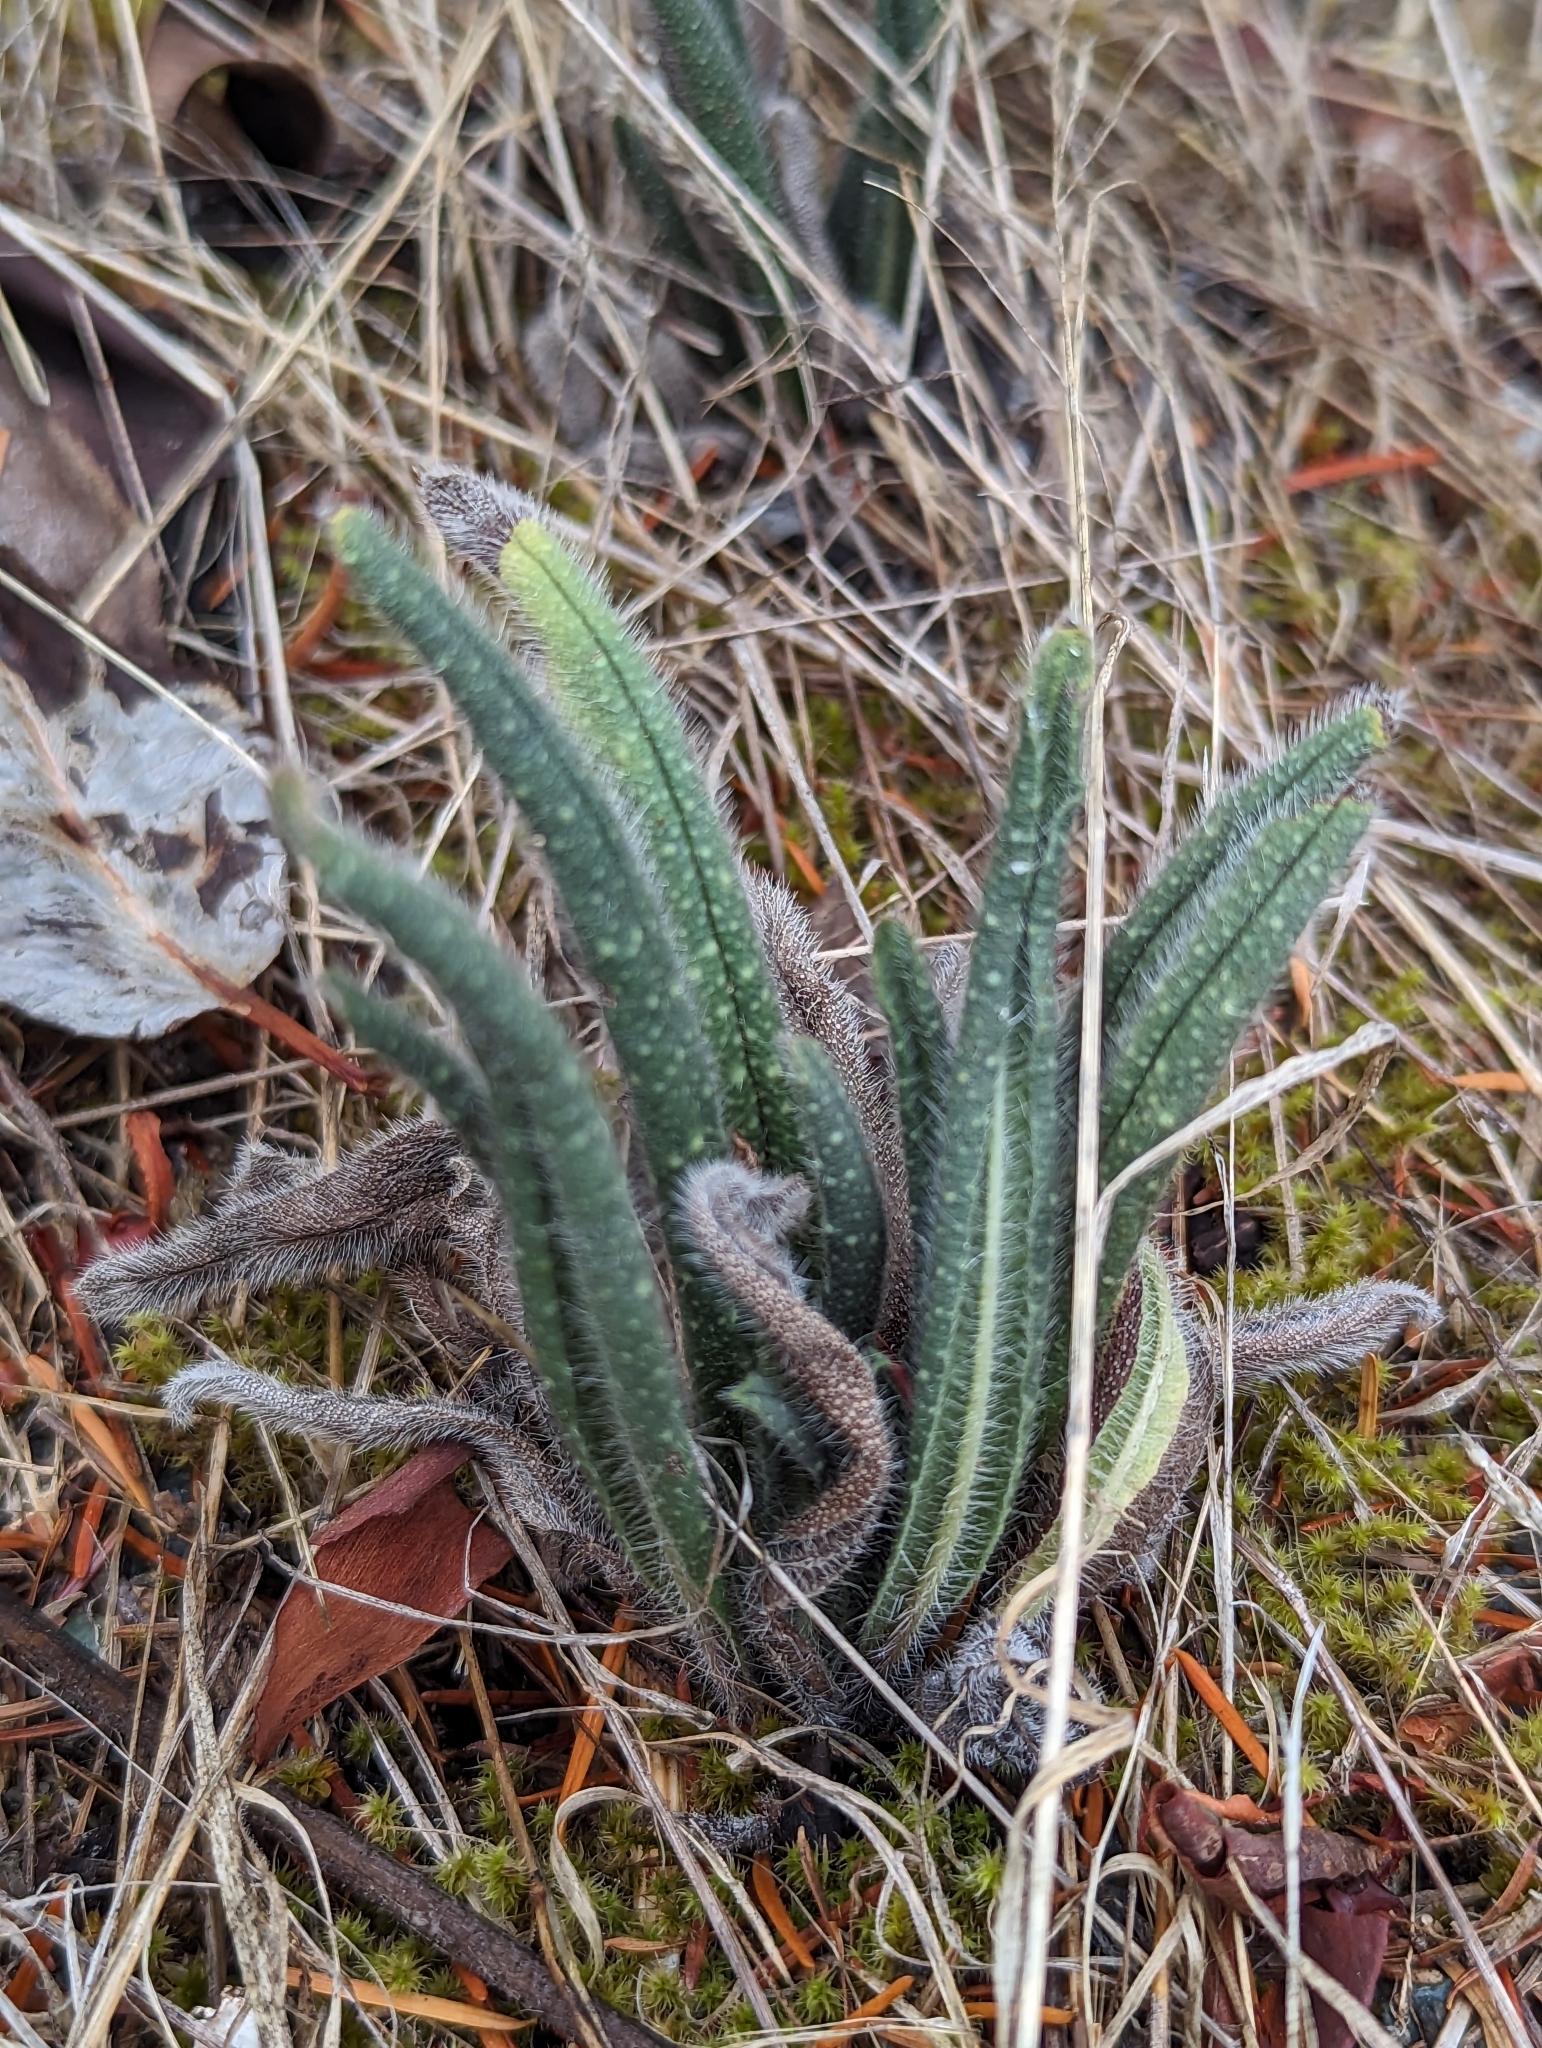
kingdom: Plantae
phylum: Tracheophyta
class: Magnoliopsida
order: Boraginales
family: Boraginaceae
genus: Echium
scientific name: Echium vulgare
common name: Common viper's bugloss
